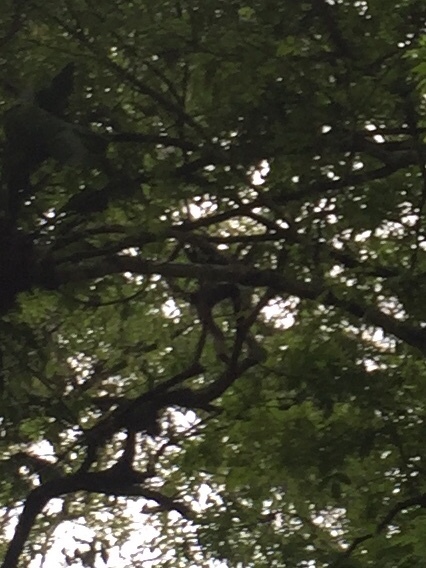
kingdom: Animalia
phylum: Chordata
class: Mammalia
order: Primates
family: Atelidae
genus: Ateles
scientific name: Ateles geoffroyi
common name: Black-handed spider monkey
